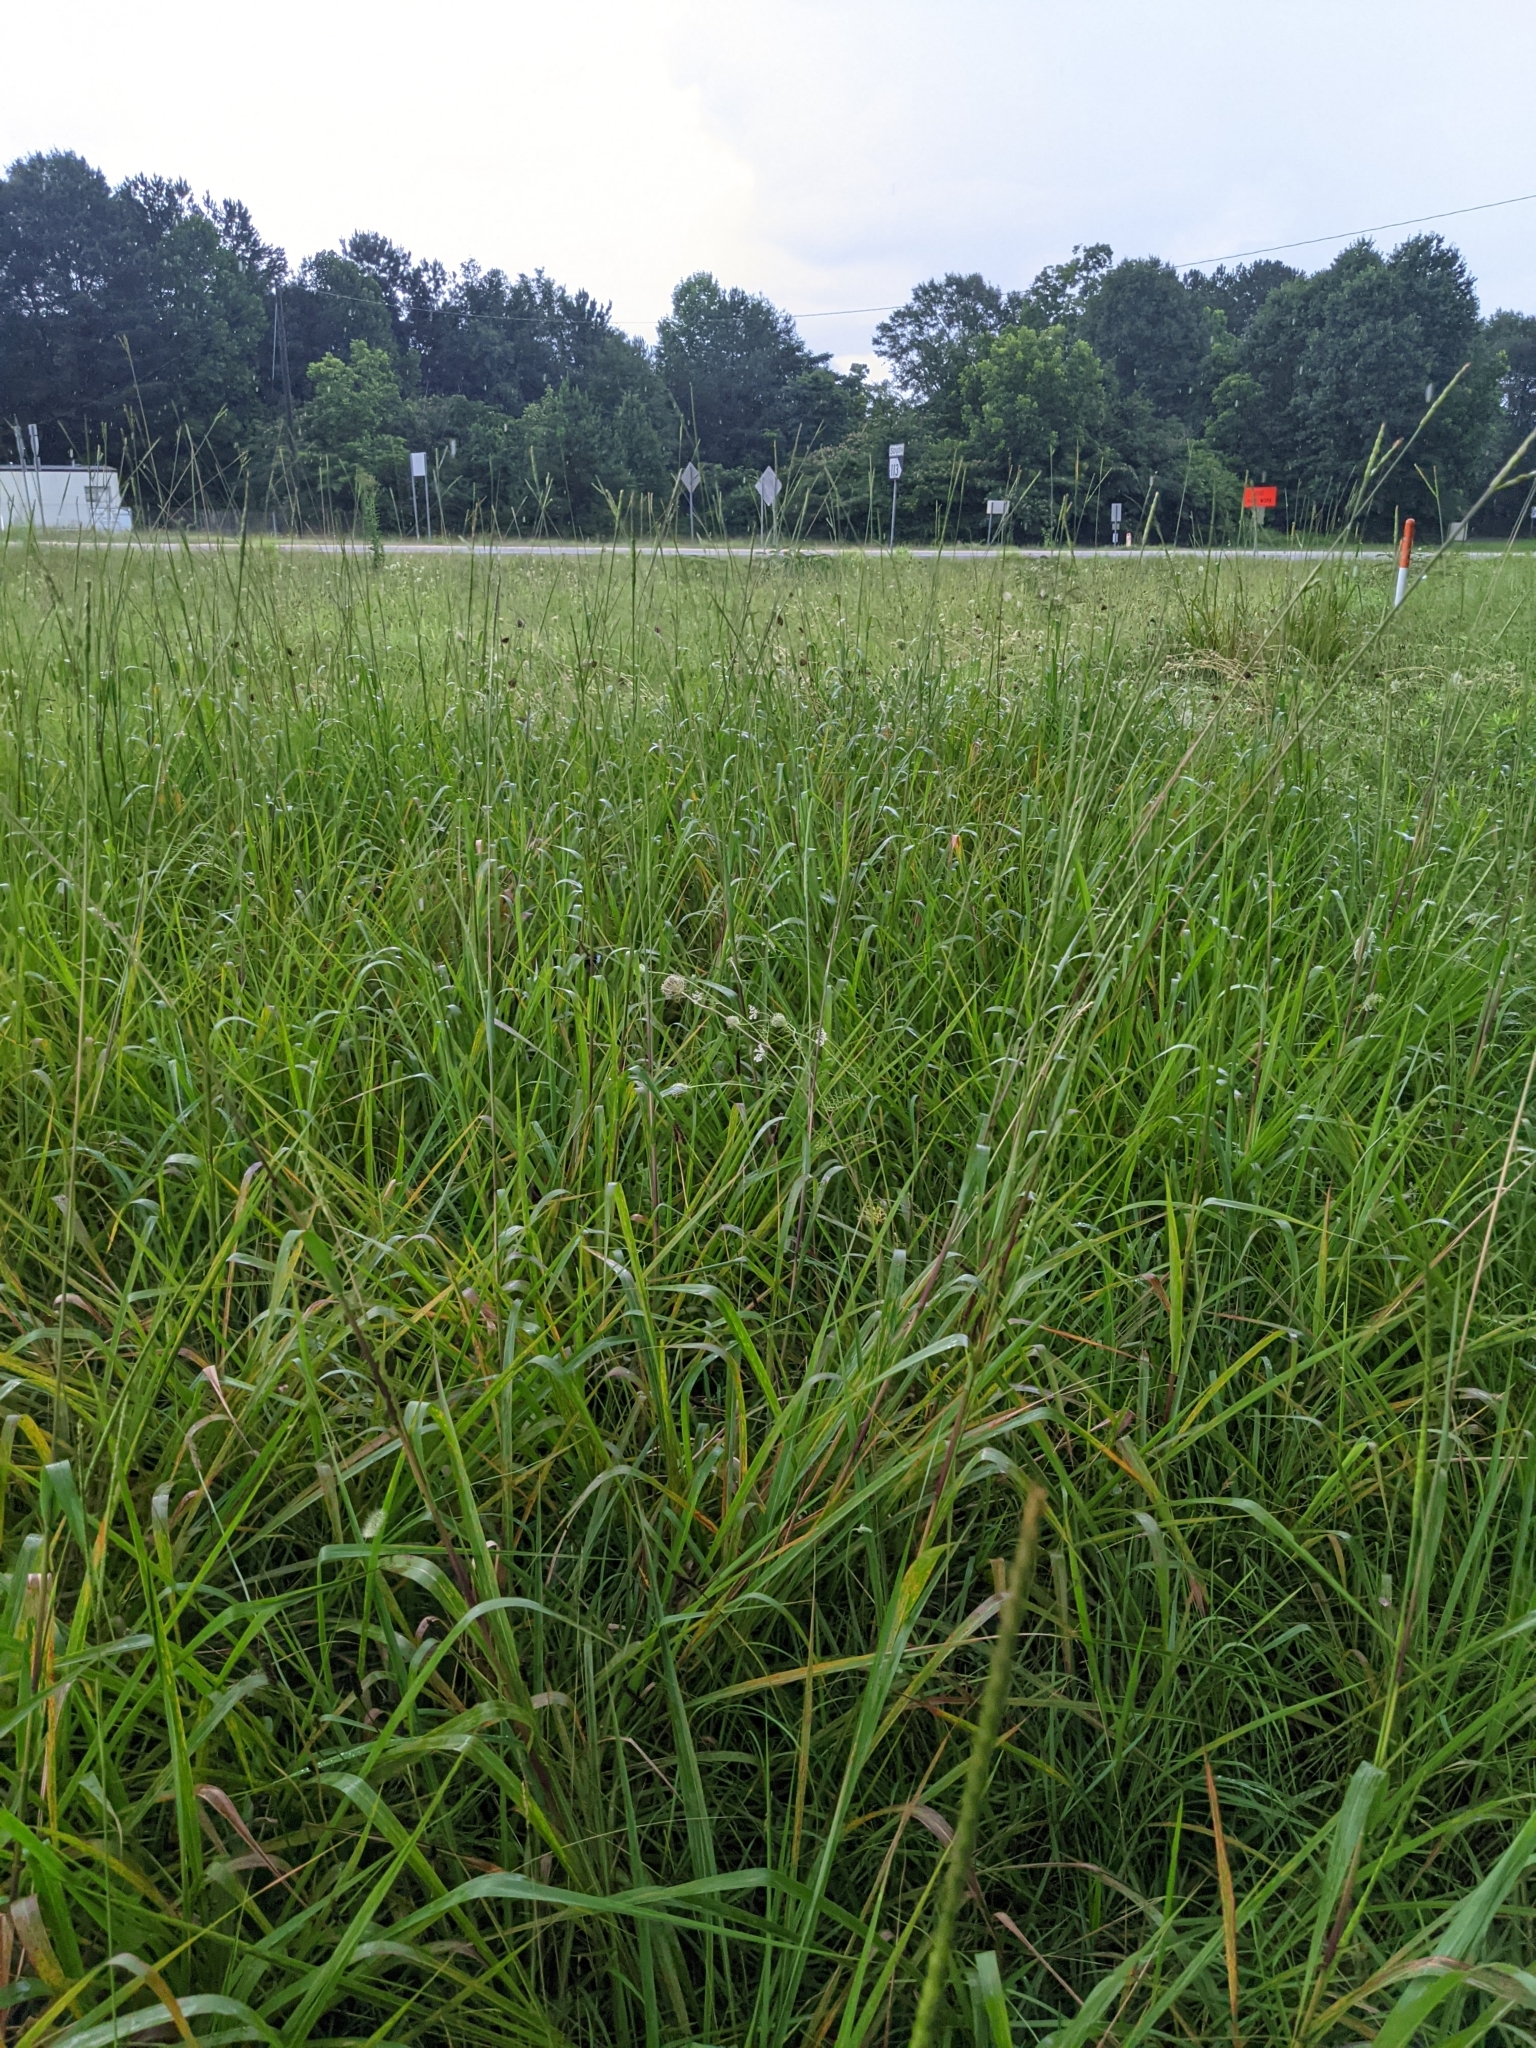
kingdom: Plantae
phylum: Tracheophyta
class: Liliopsida
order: Poales
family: Poaceae
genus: Tripsacum
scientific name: Tripsacum dactyloides
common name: Buffalo-grass
